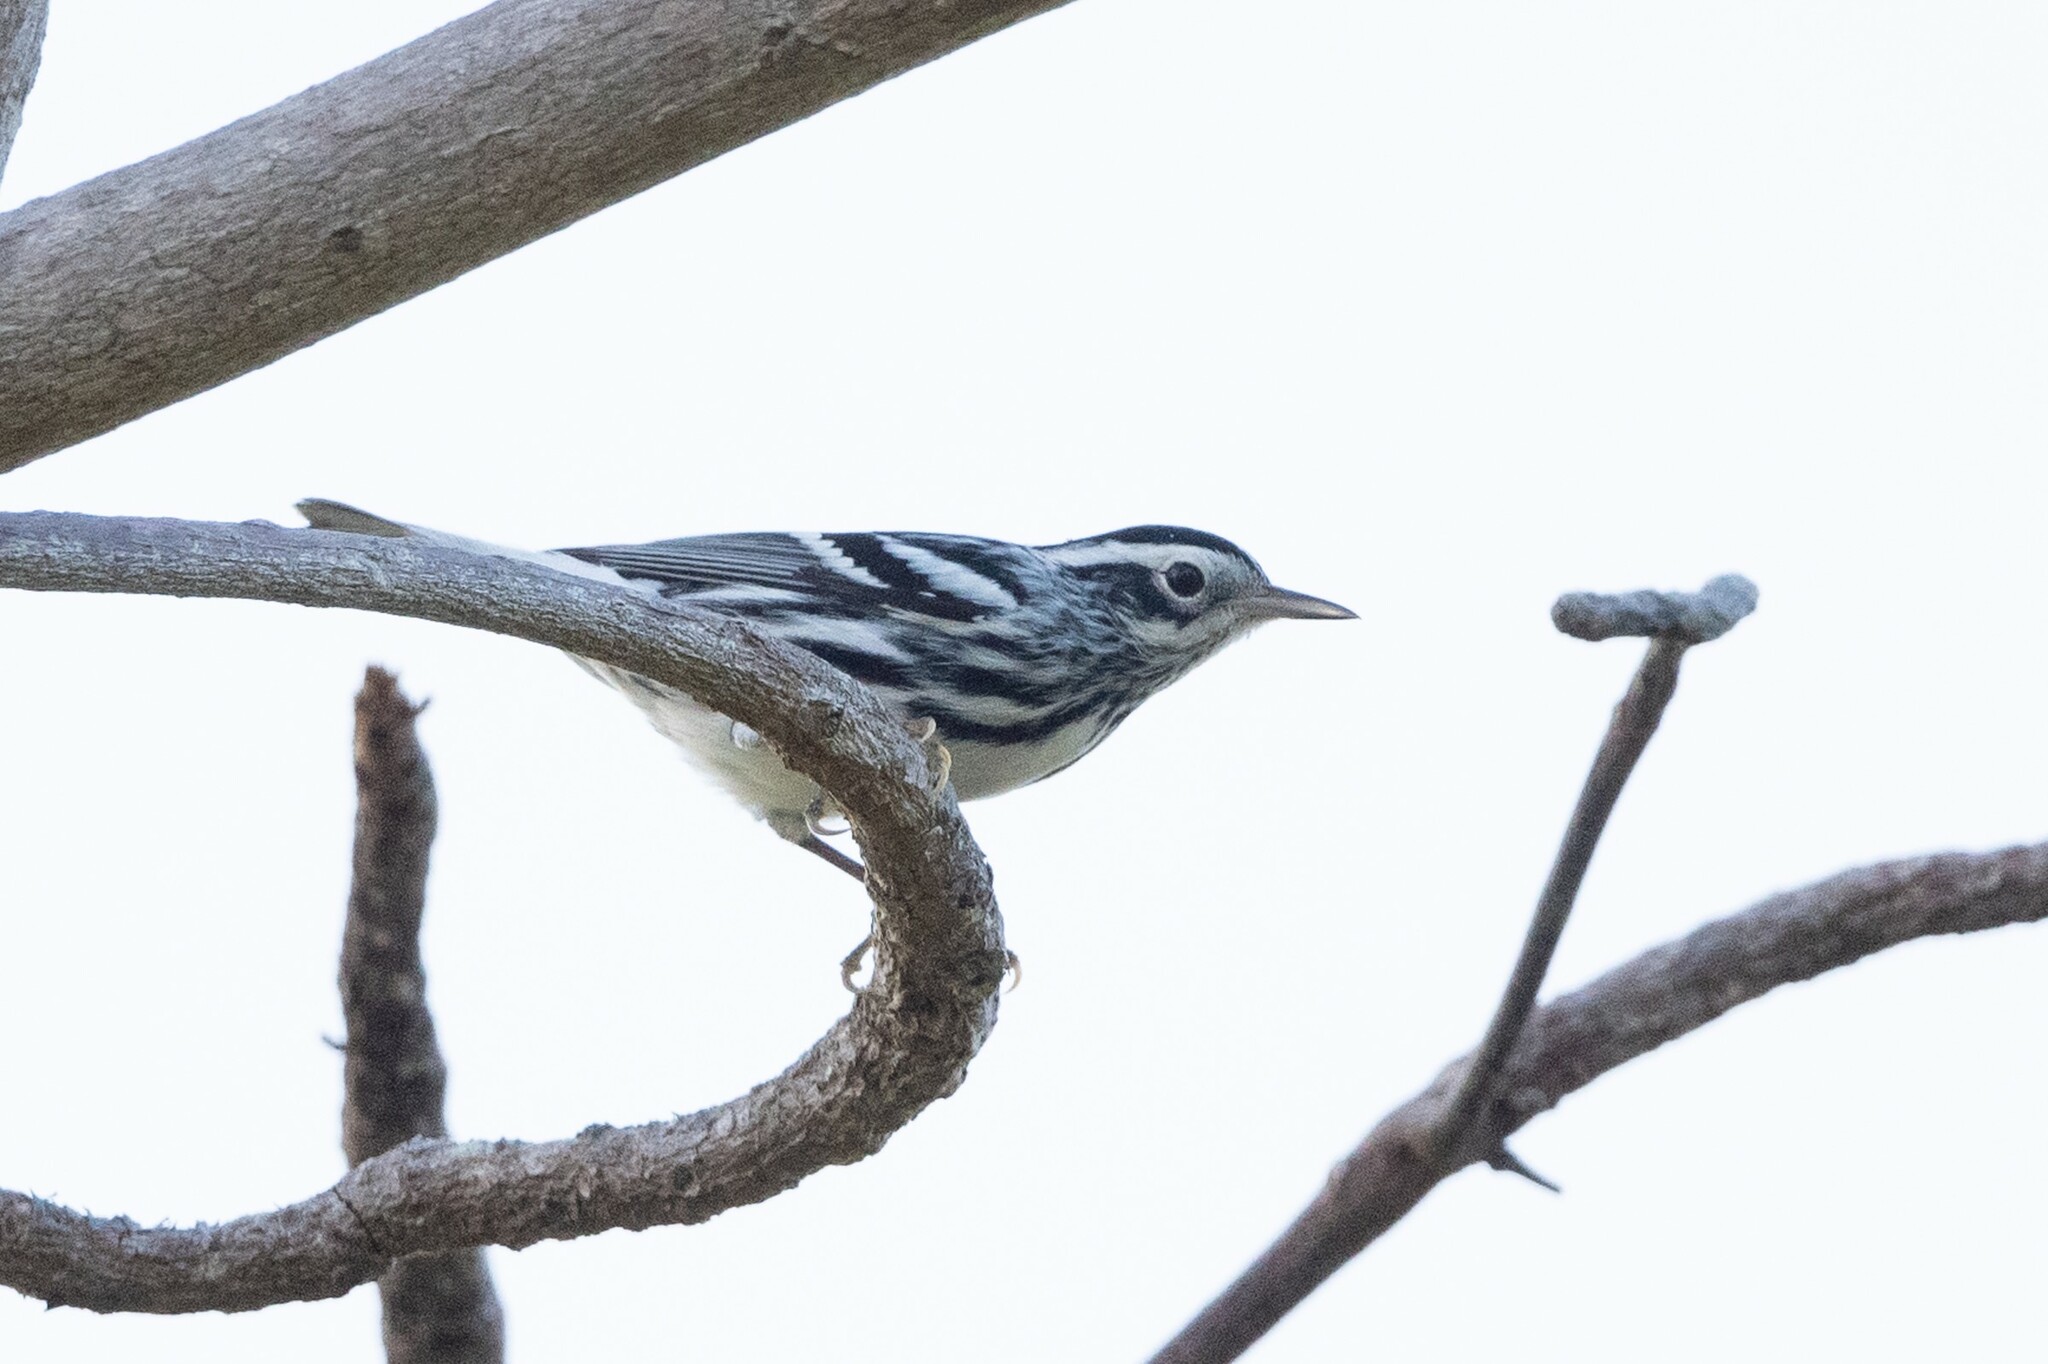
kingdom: Animalia
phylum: Chordata
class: Aves
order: Passeriformes
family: Parulidae
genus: Mniotilta
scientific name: Mniotilta varia
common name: Black-and-white warbler
